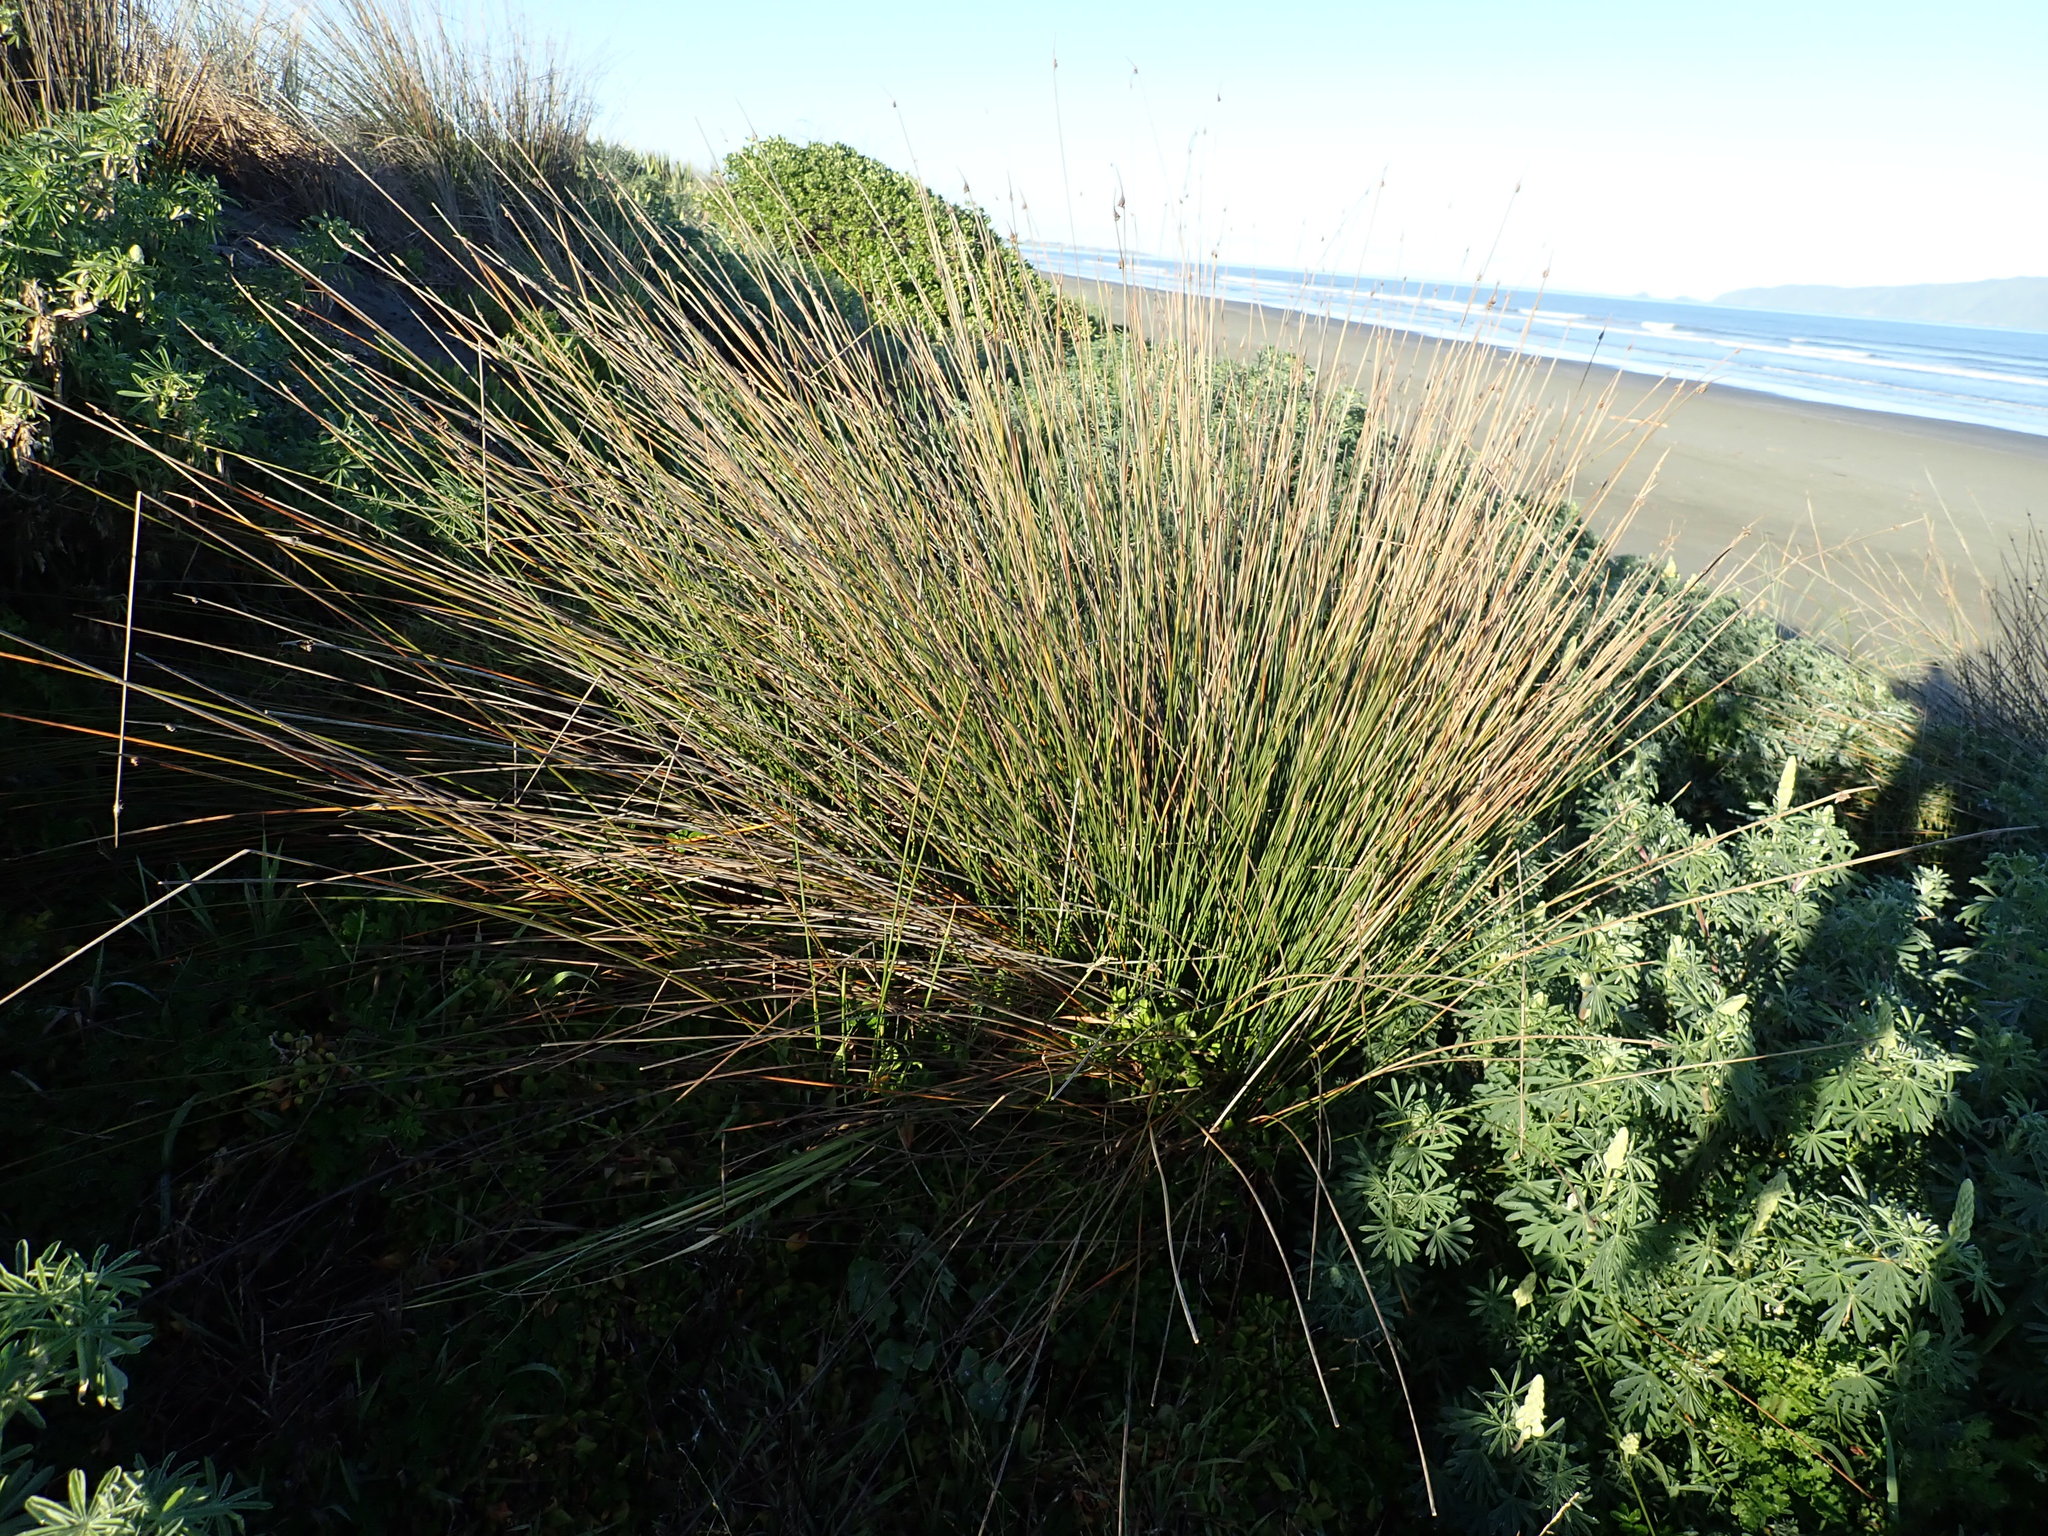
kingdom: Plantae
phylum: Tracheophyta
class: Liliopsida
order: Poales
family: Cyperaceae
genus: Ficinia
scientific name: Ficinia nodosa
